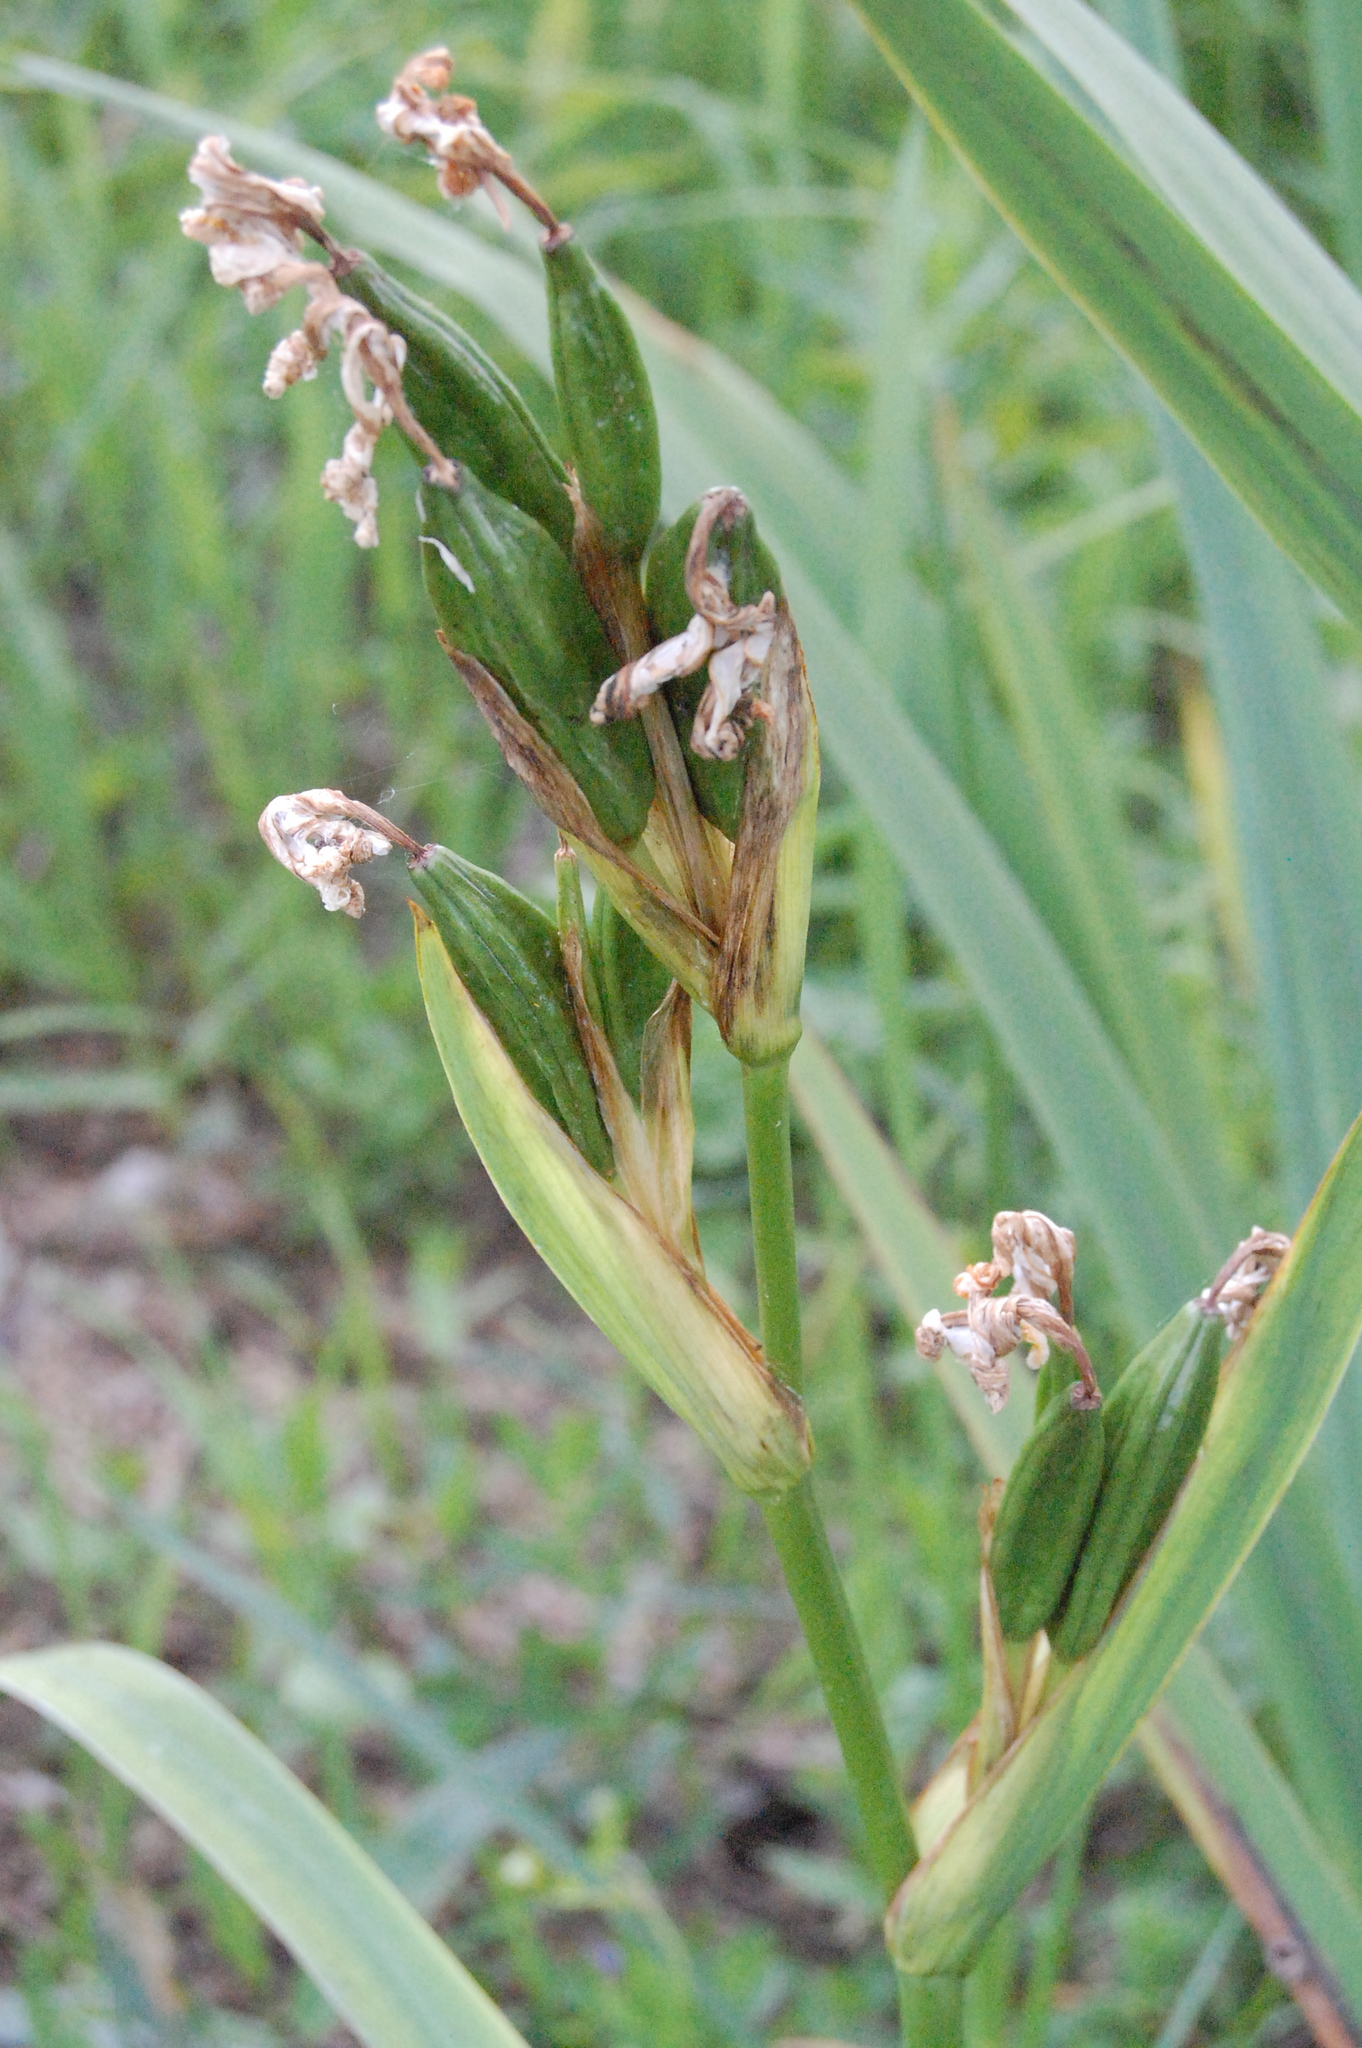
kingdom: Plantae
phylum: Tracheophyta
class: Liliopsida
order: Asparagales
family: Iridaceae
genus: Iris
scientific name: Iris pseudacorus
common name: Yellow flag
